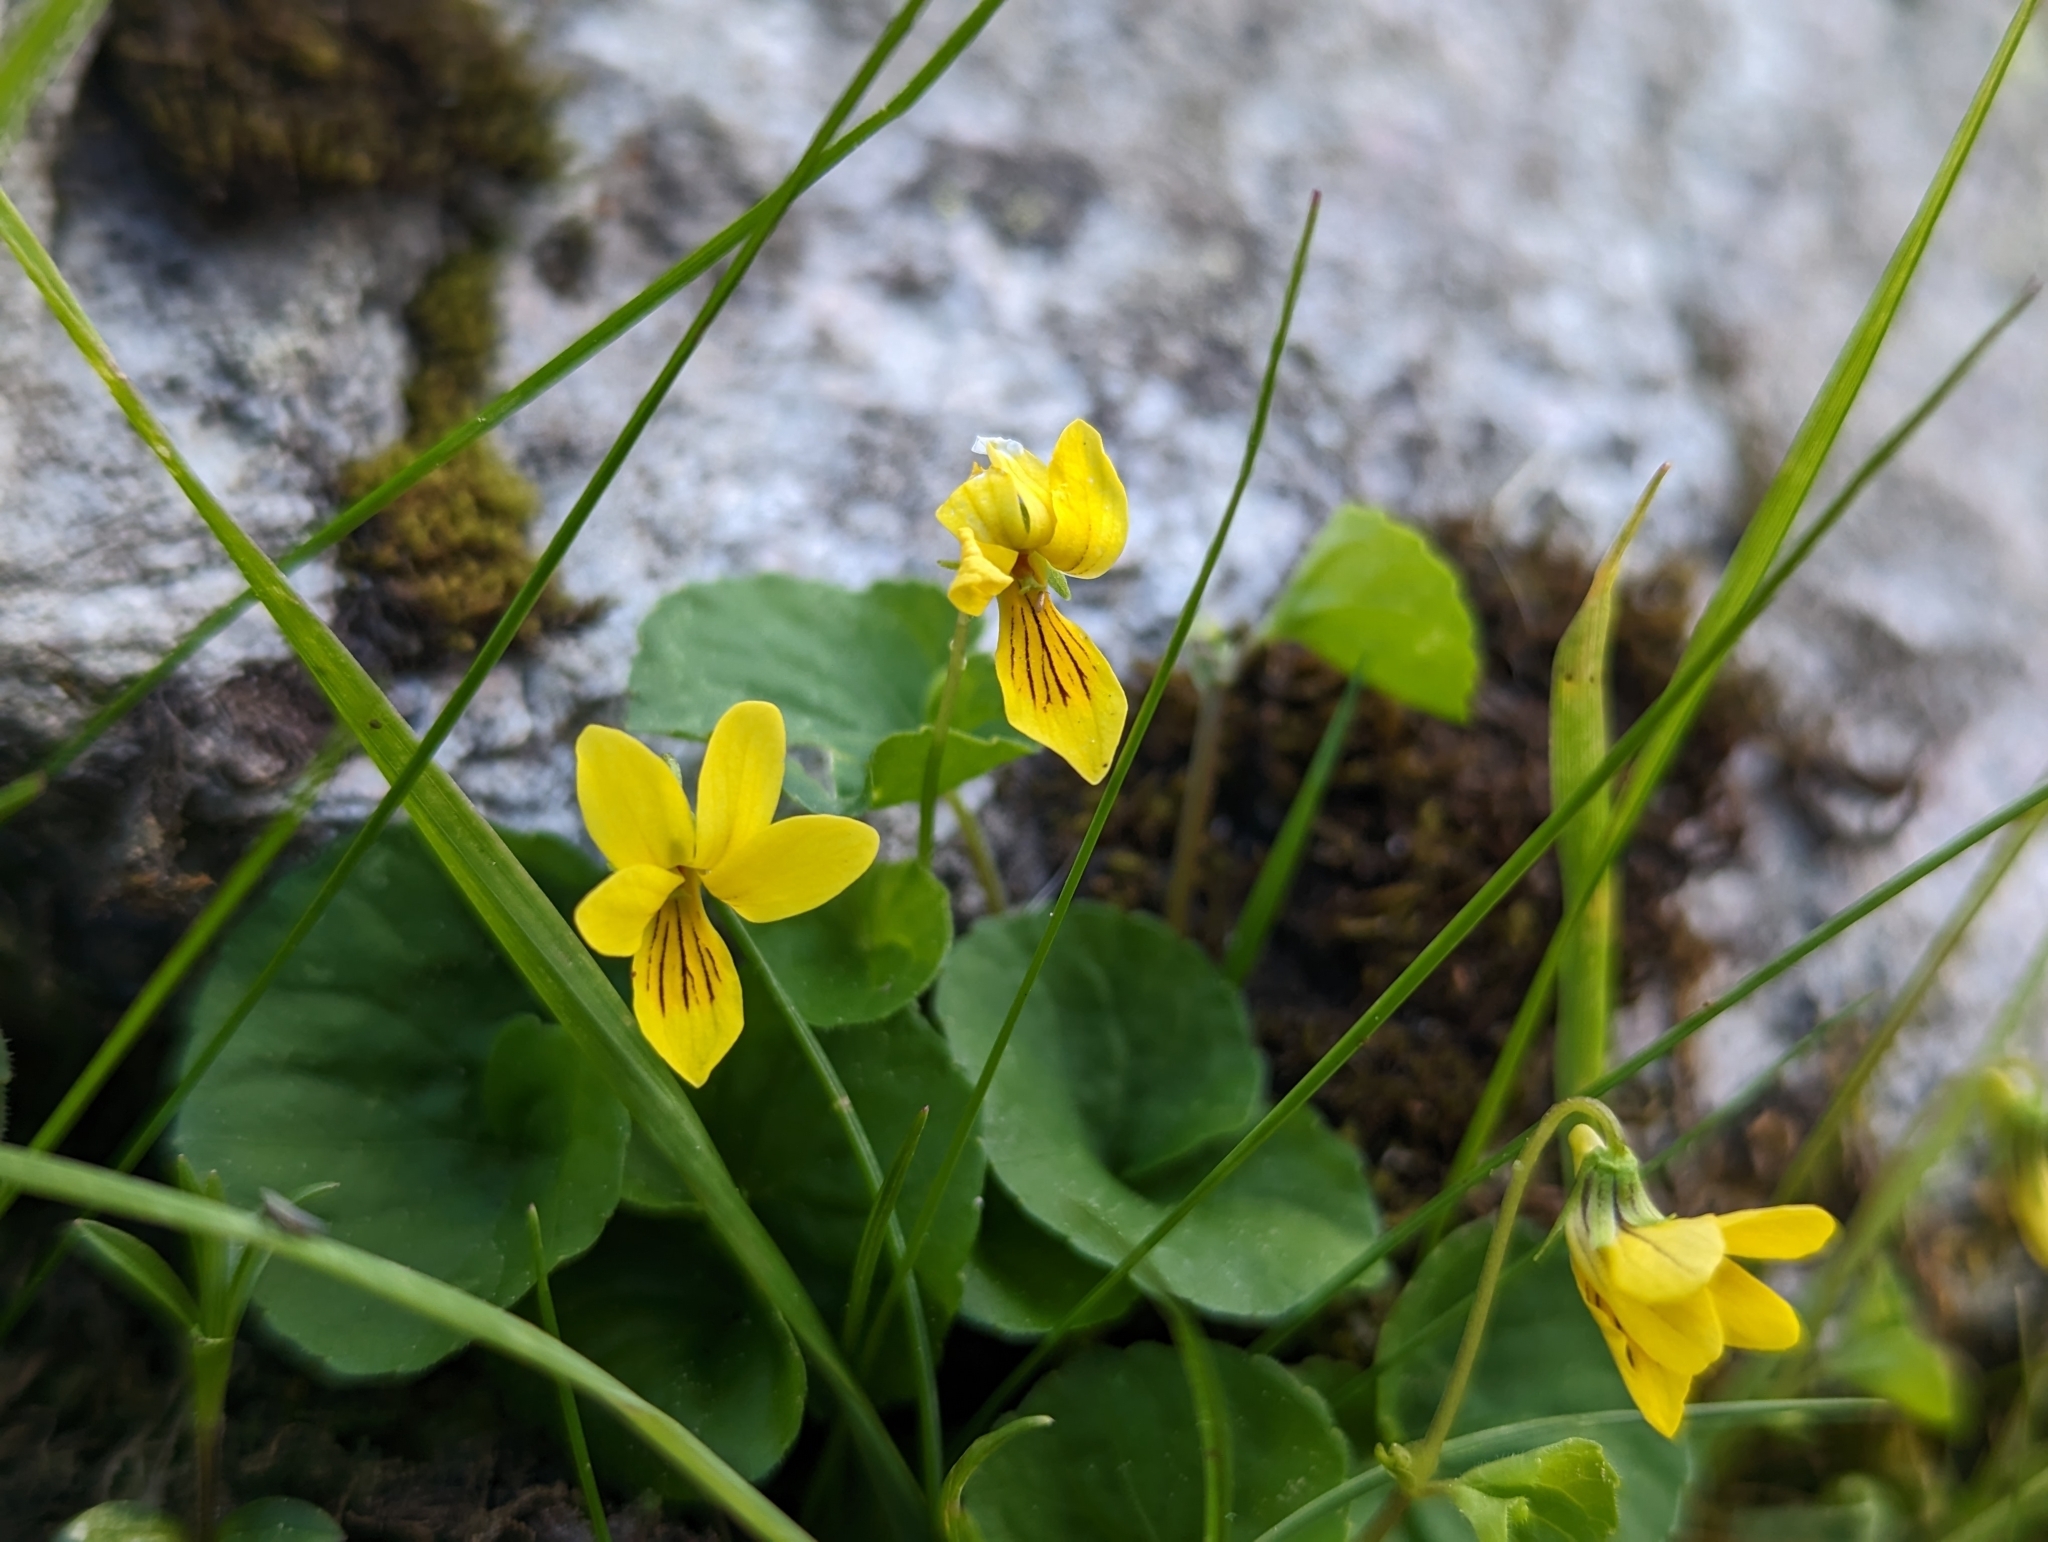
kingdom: Plantae
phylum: Tracheophyta
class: Magnoliopsida
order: Malpighiales
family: Violaceae
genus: Viola
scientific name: Viola biflora
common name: Alpine yellow violet
